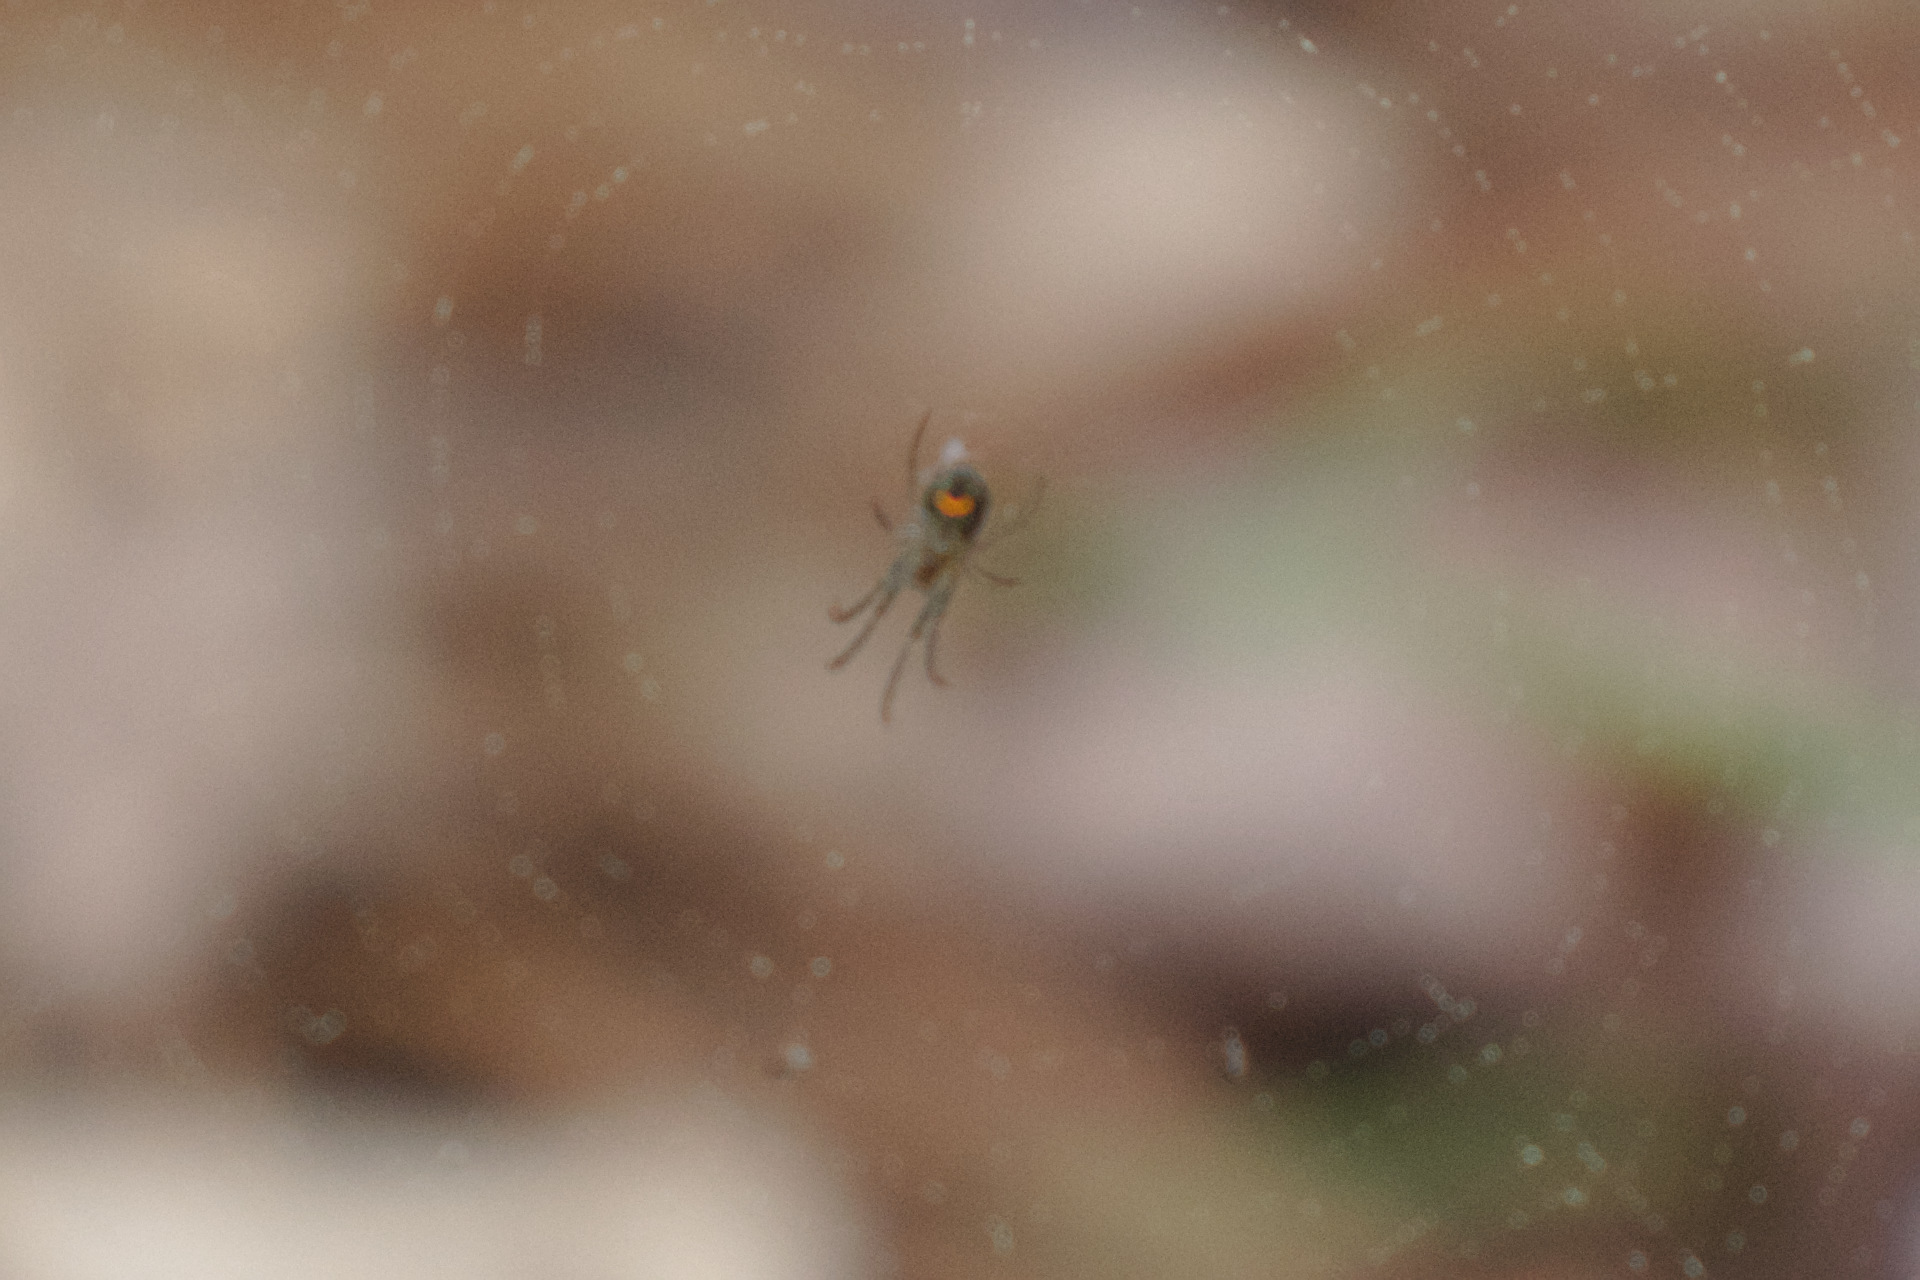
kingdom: Animalia
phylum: Arthropoda
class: Arachnida
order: Araneae
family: Tetragnathidae
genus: Leucauge
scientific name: Leucauge
